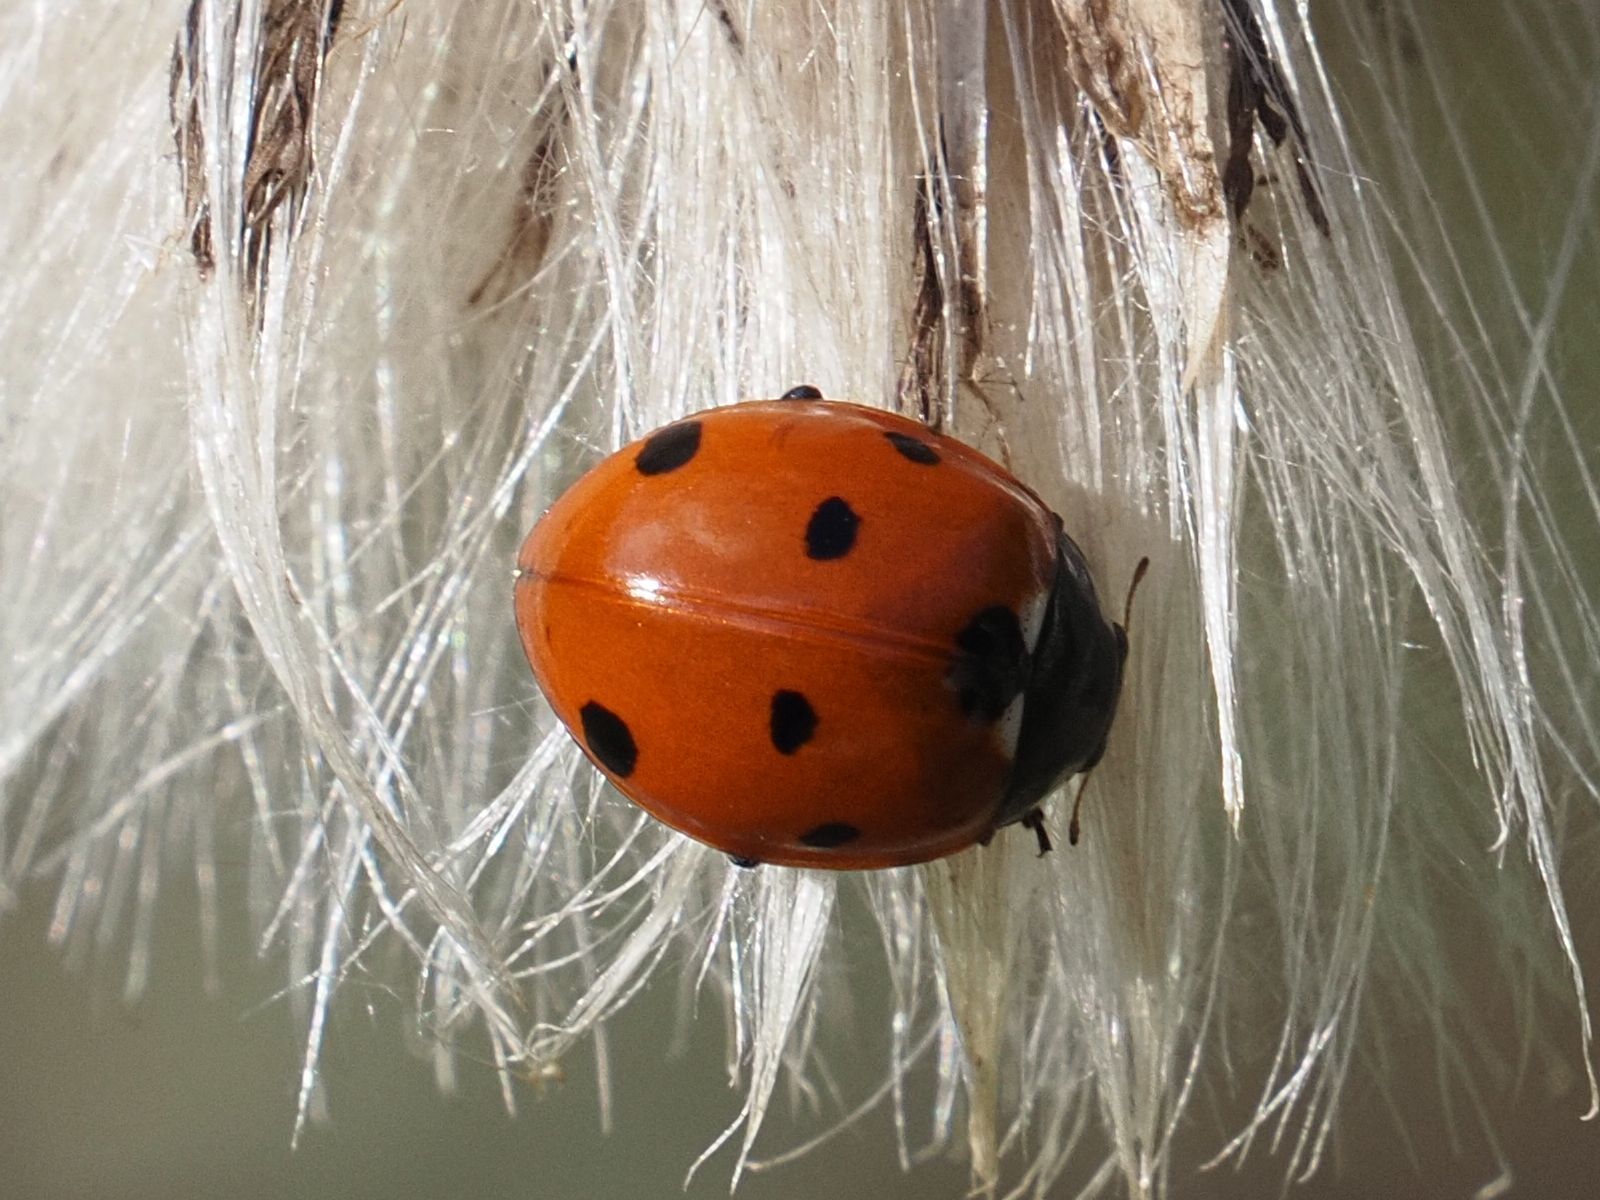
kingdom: Animalia
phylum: Arthropoda
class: Insecta
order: Coleoptera
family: Coccinellidae
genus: Coccinella
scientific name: Coccinella septempunctata
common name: Sevenspotted lady beetle
